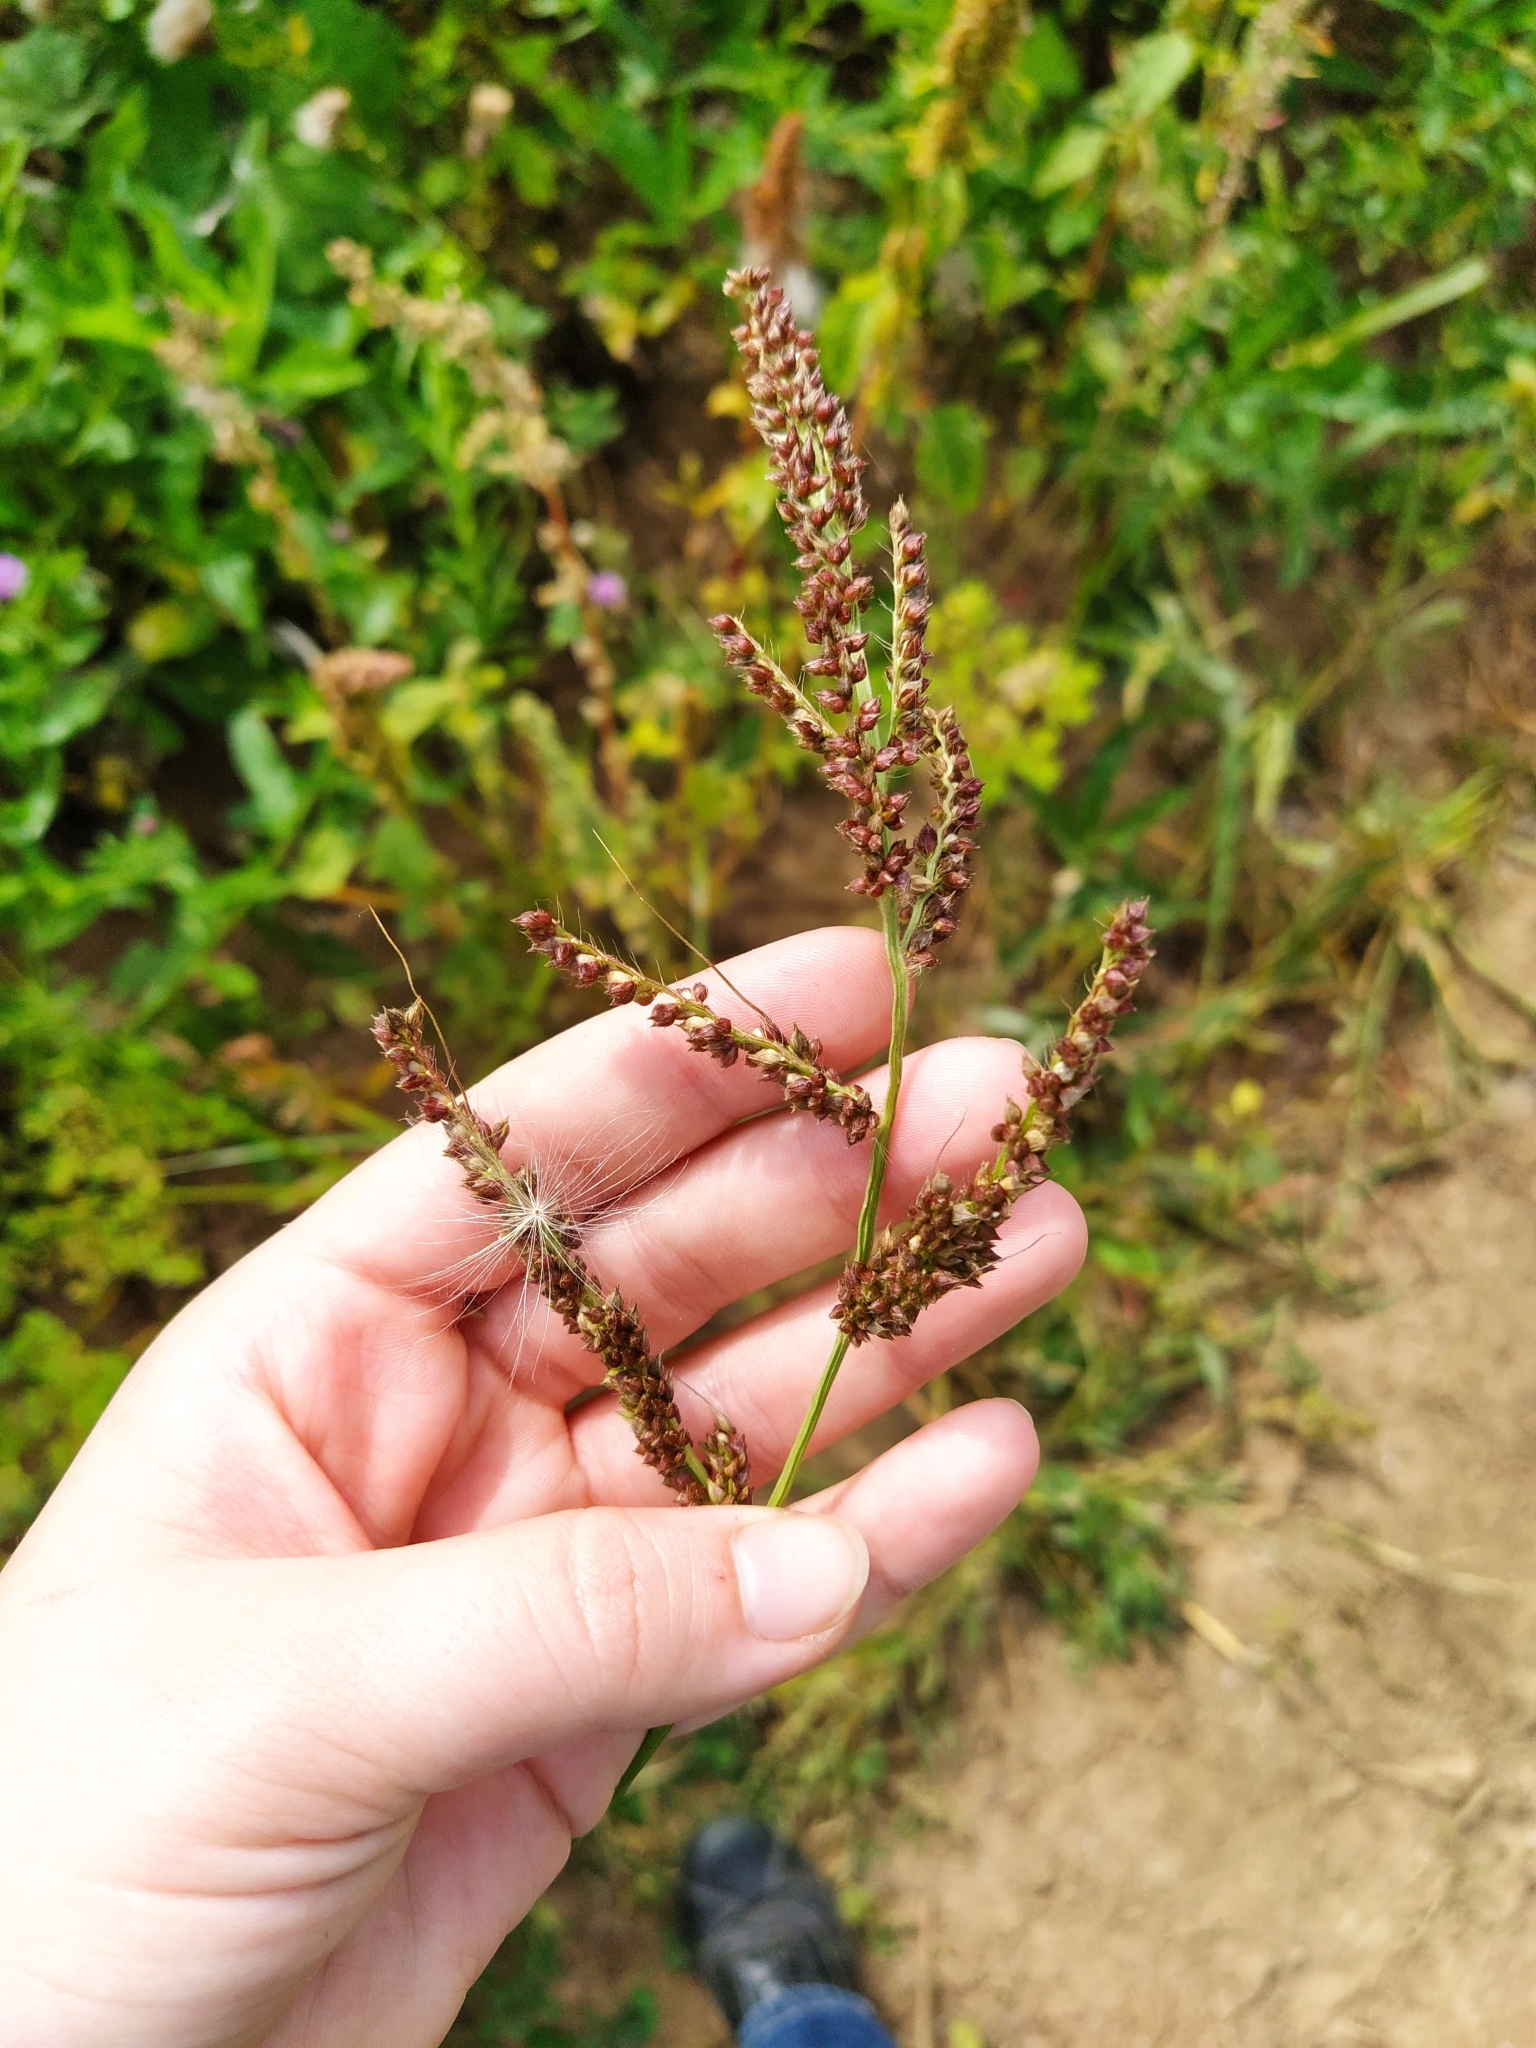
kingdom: Plantae
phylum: Tracheophyta
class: Liliopsida
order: Poales
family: Poaceae
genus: Echinochloa
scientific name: Echinochloa crus-galli
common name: Cockspur
